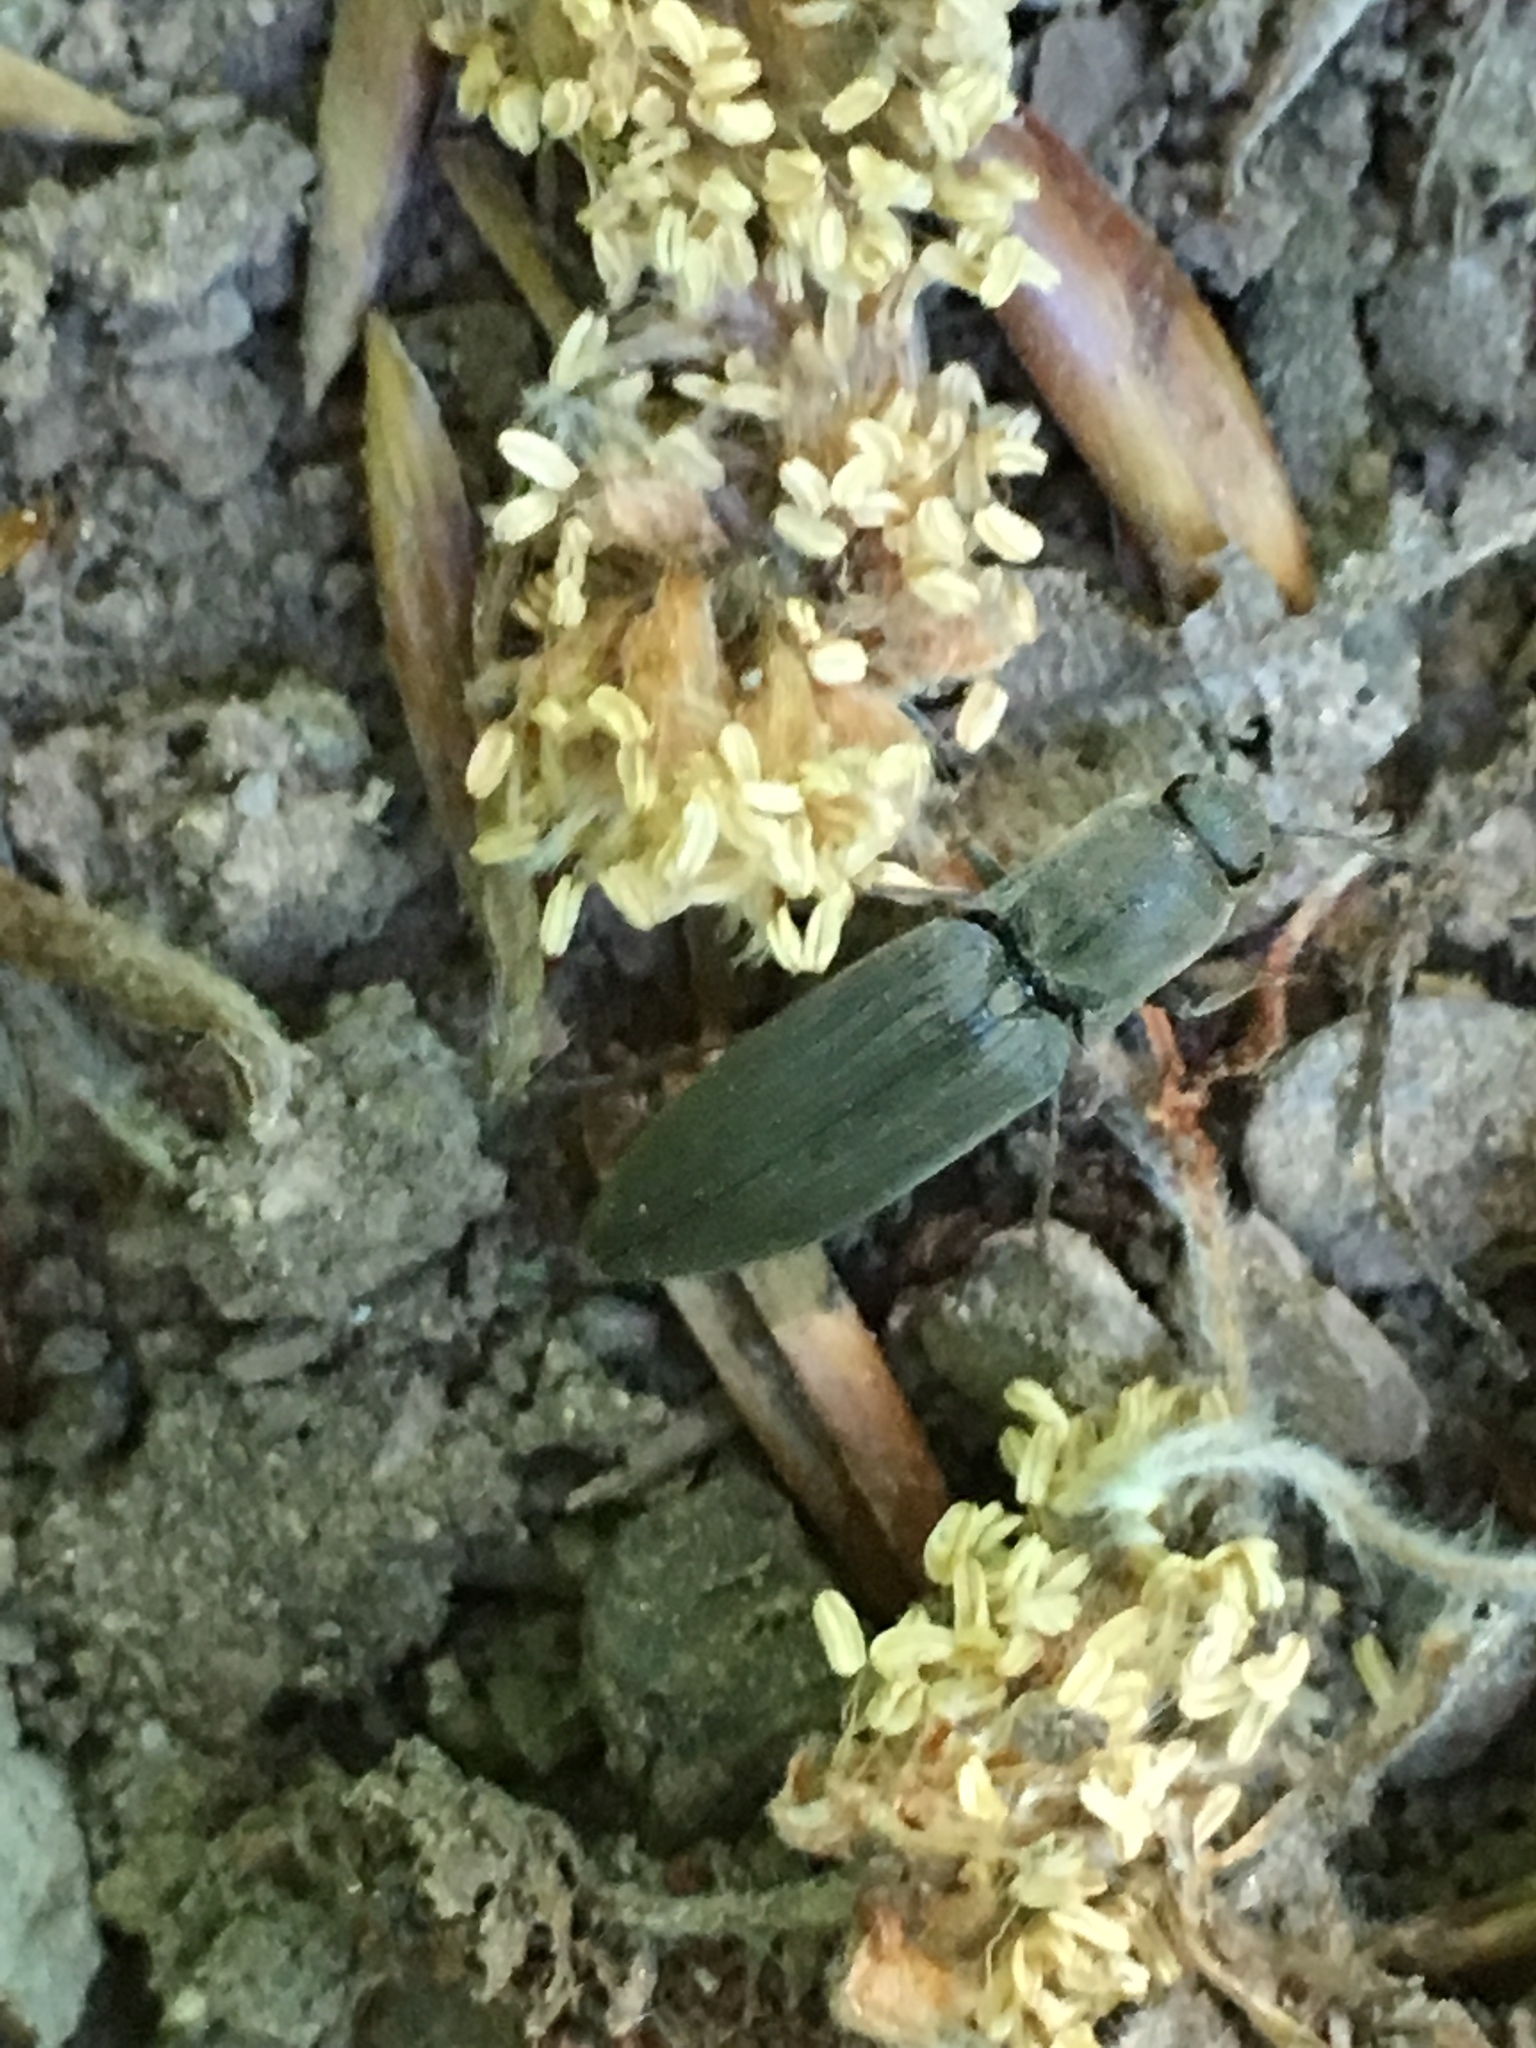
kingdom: Animalia
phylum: Arthropoda
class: Insecta
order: Coleoptera
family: Elateridae
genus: Agriotes
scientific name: Agriotes pilosellus
